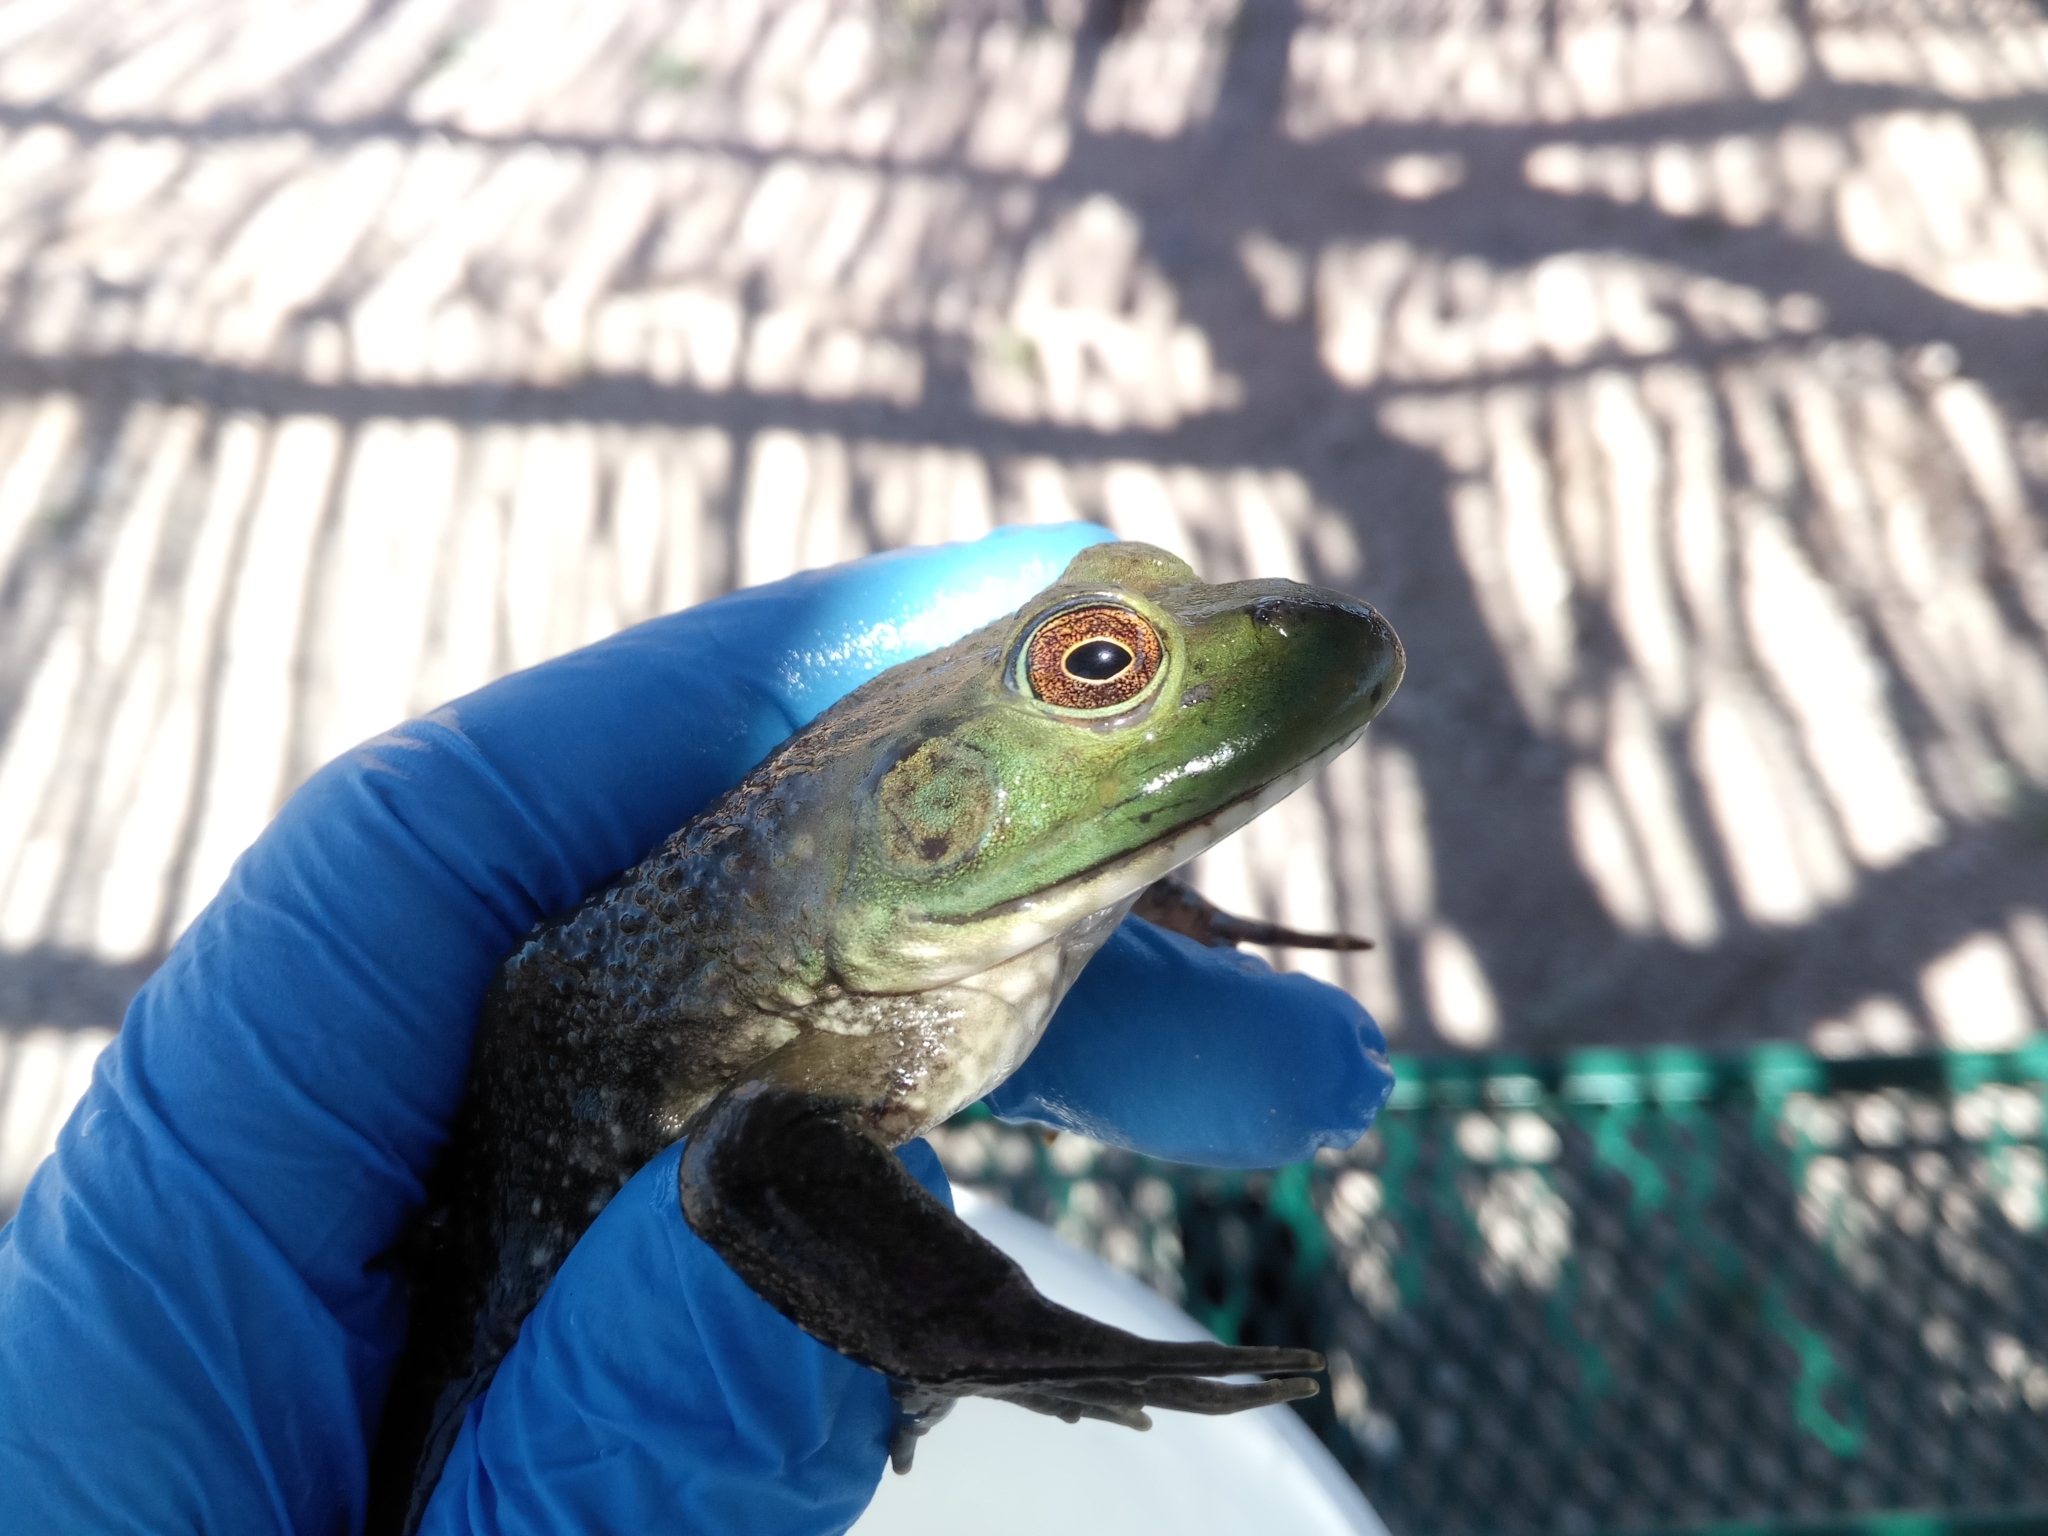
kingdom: Animalia
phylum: Chordata
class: Amphibia
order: Anura
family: Ranidae
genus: Lithobates
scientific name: Lithobates catesbeianus
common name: American bullfrog
